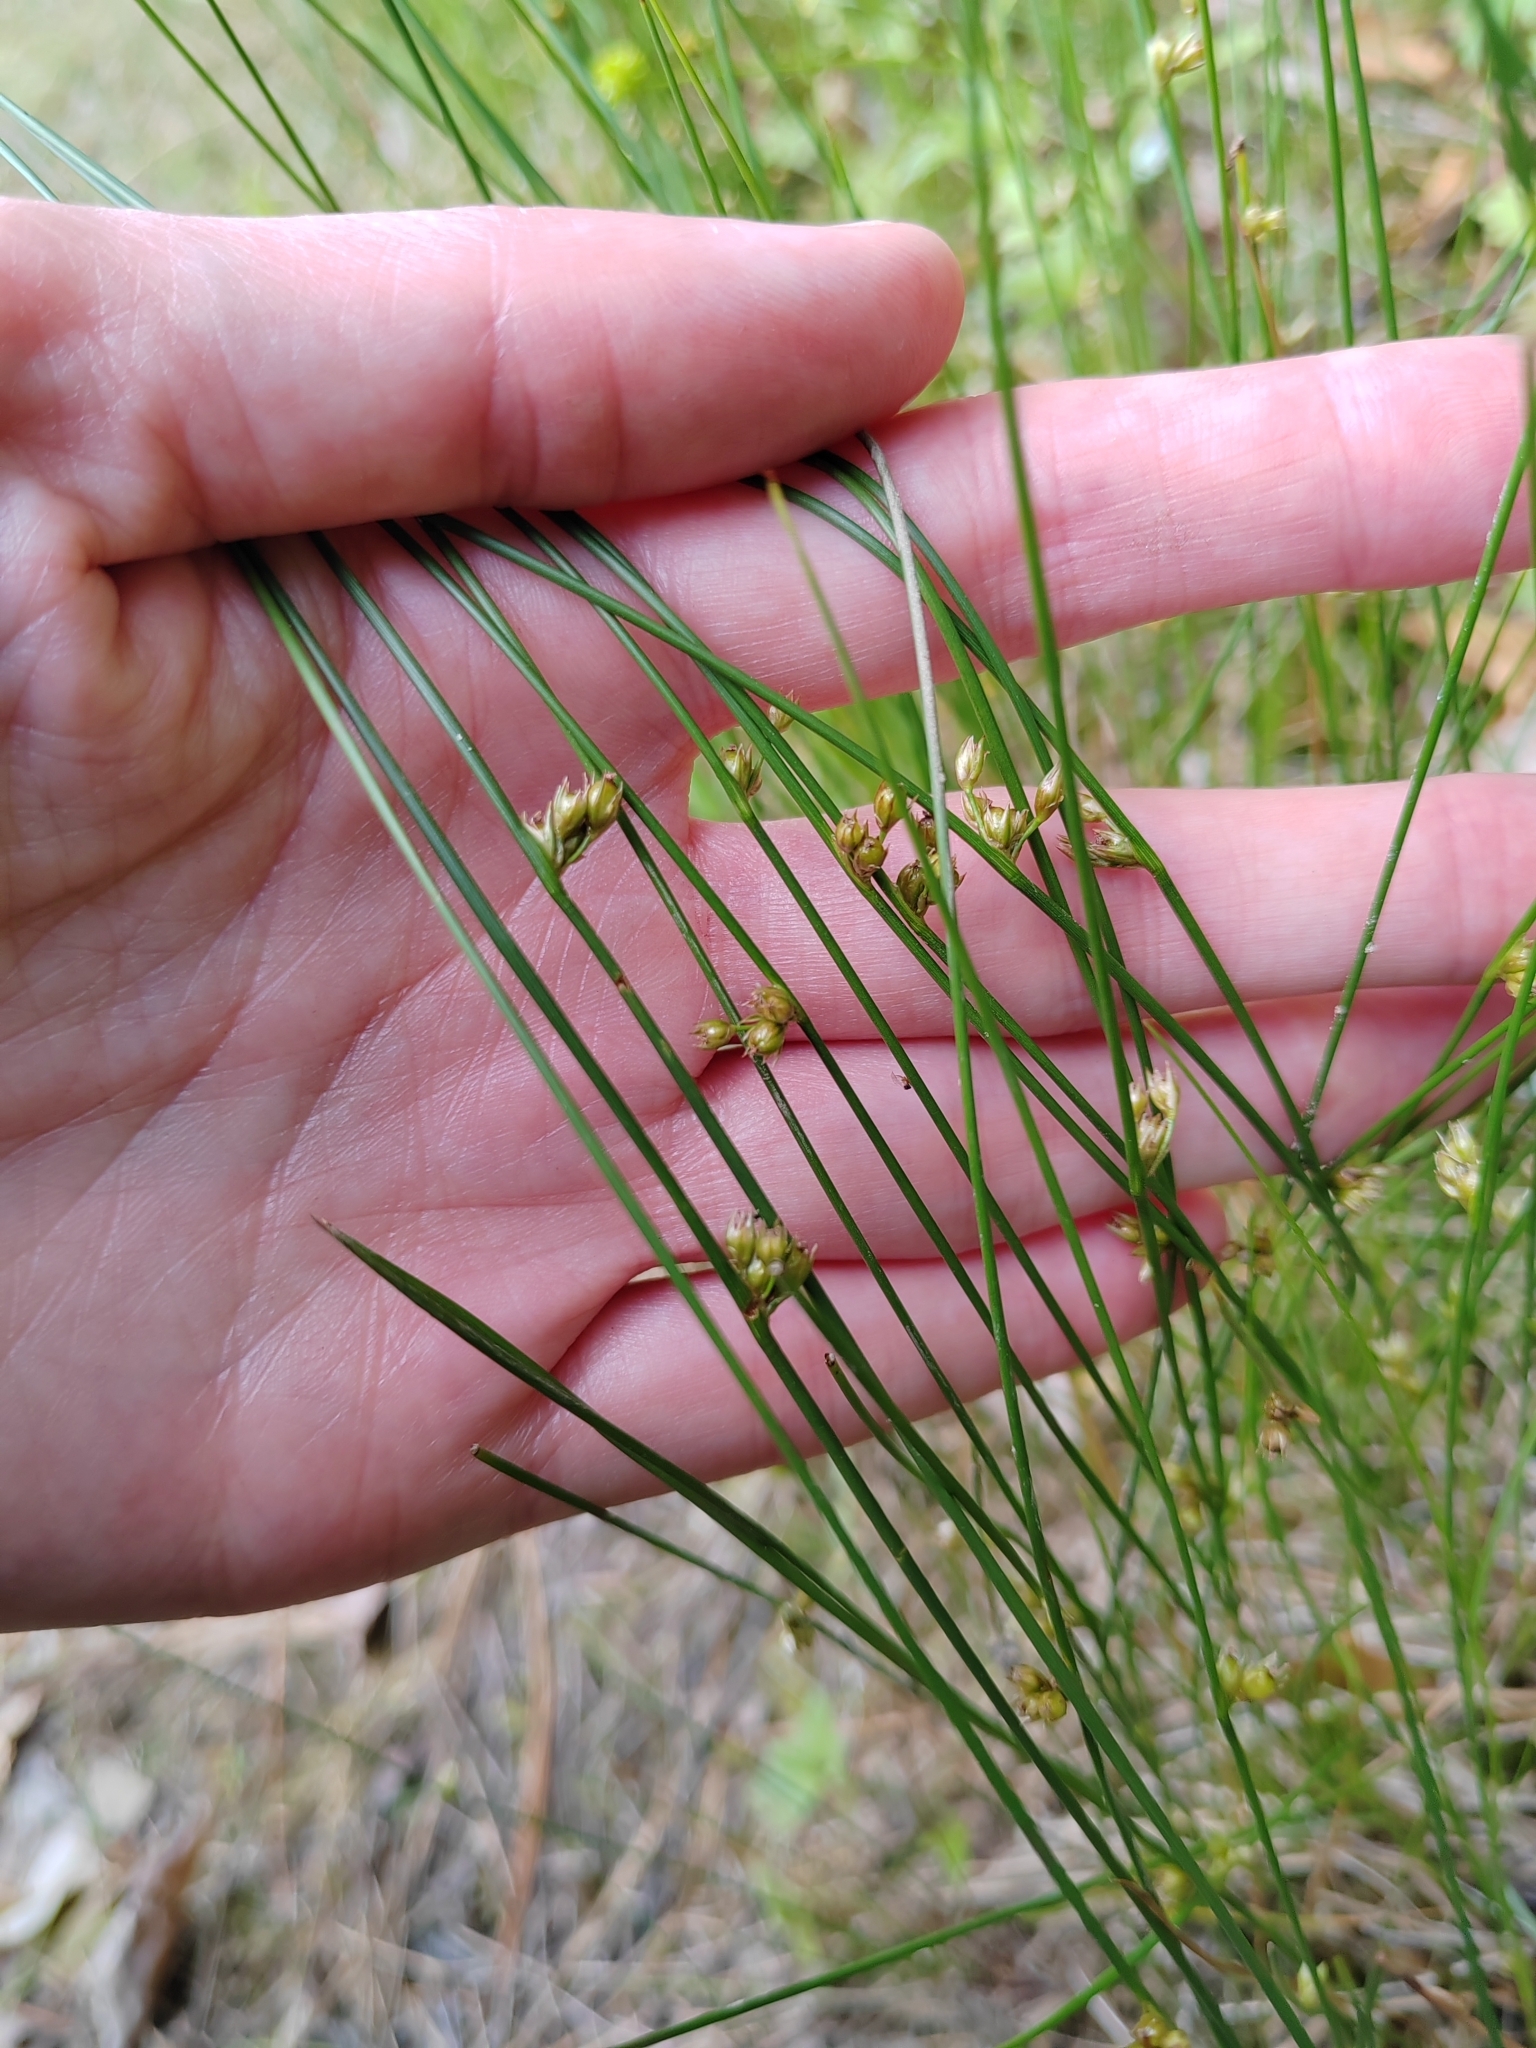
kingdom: Plantae
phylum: Tracheophyta
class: Liliopsida
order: Poales
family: Juncaceae
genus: Juncus
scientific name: Juncus filiformis
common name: Thread rush
